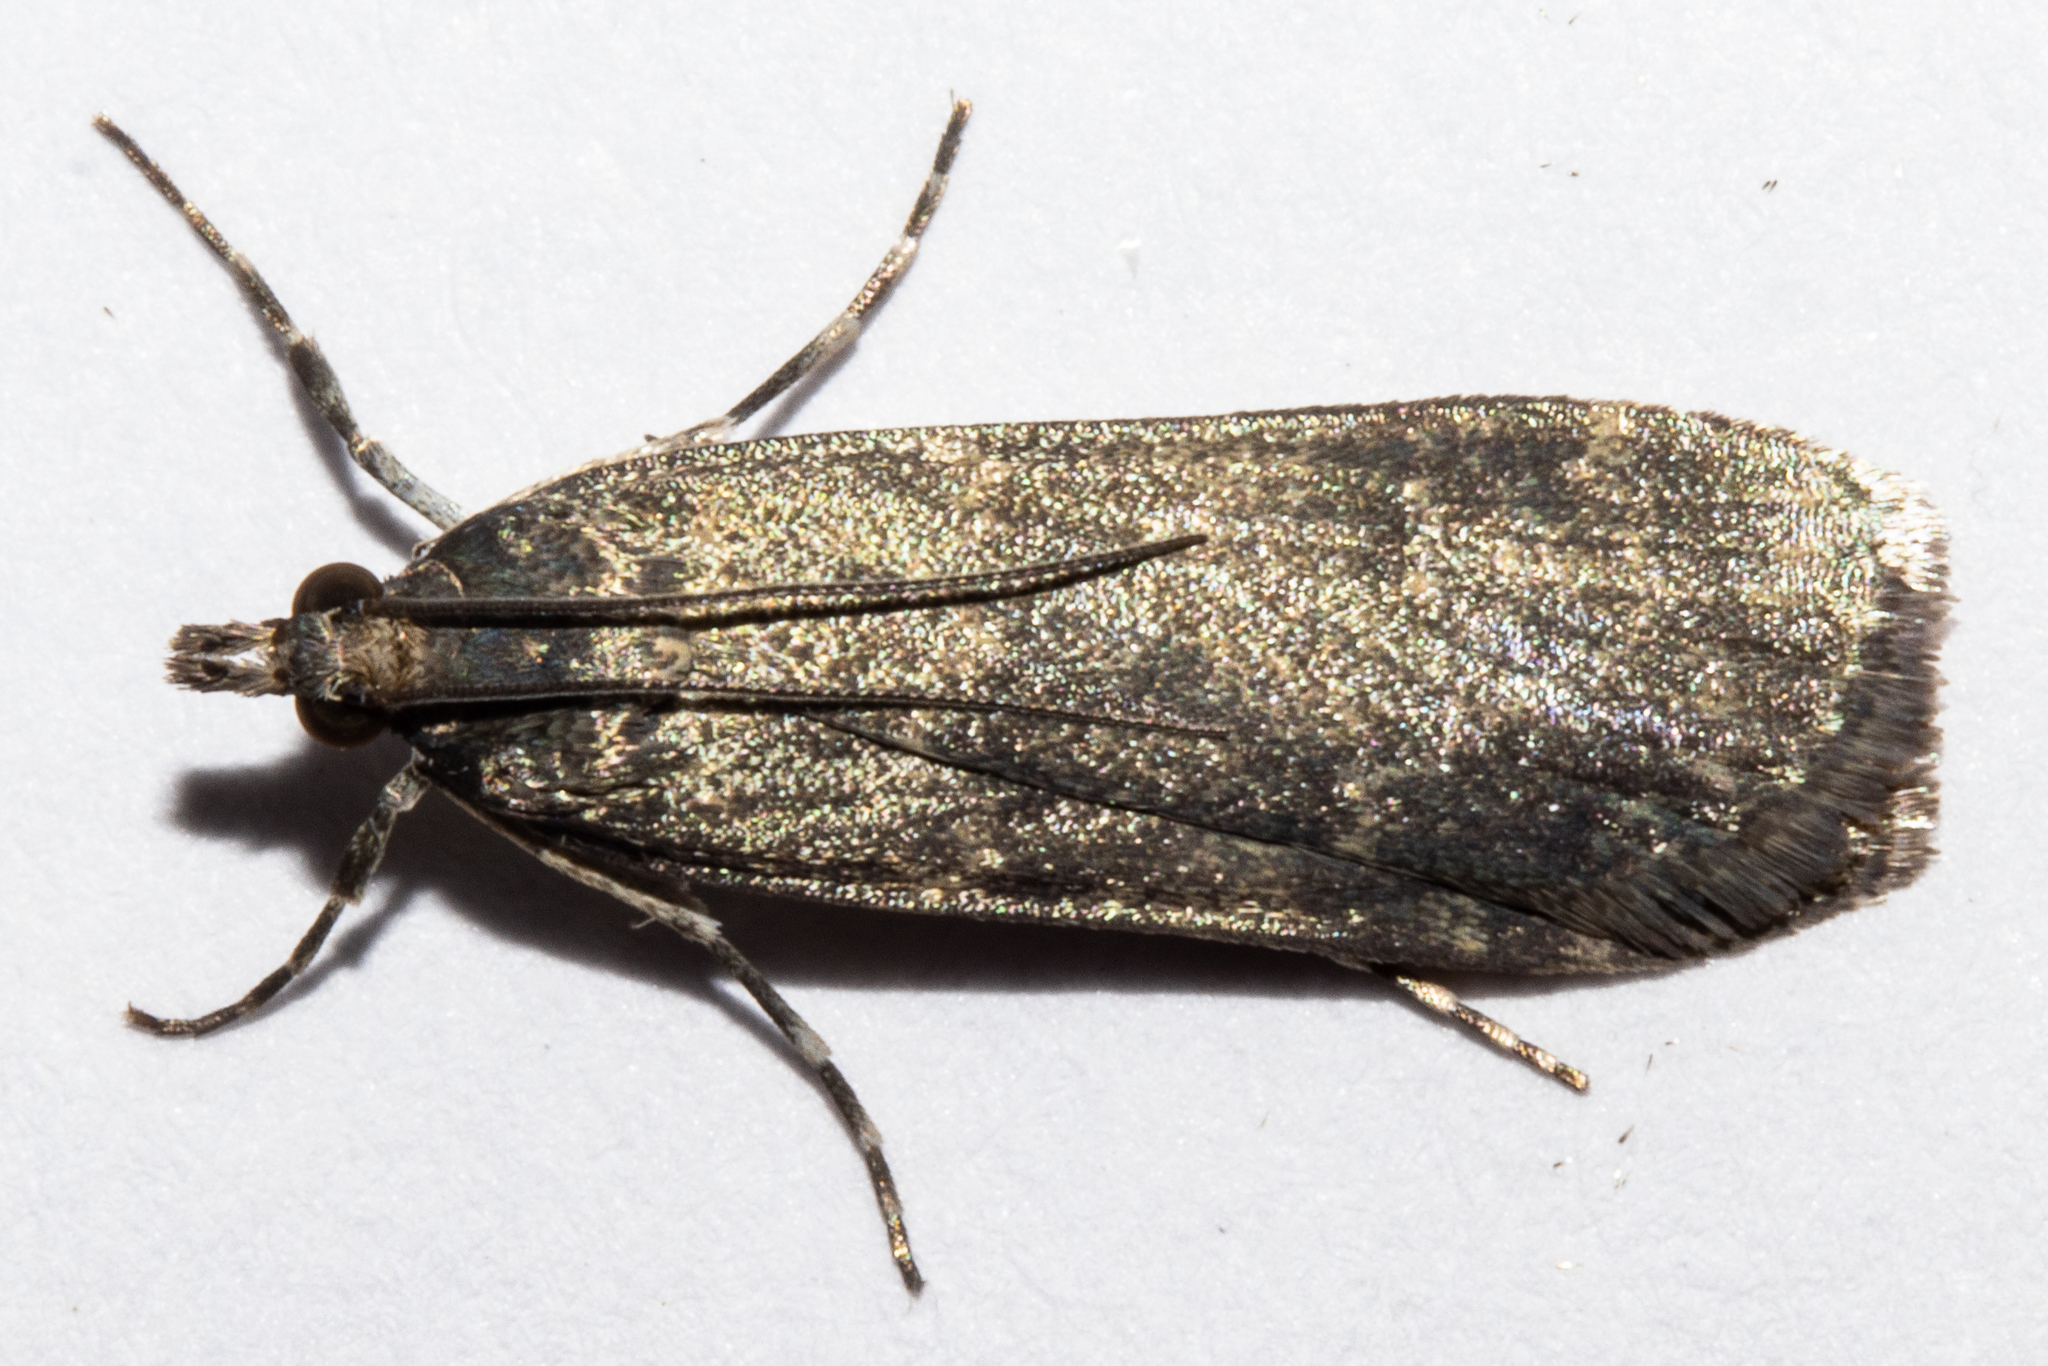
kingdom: Animalia
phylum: Arthropoda
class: Insecta
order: Lepidoptera
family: Crambidae
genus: Eudonia
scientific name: Eudonia cataxesta
